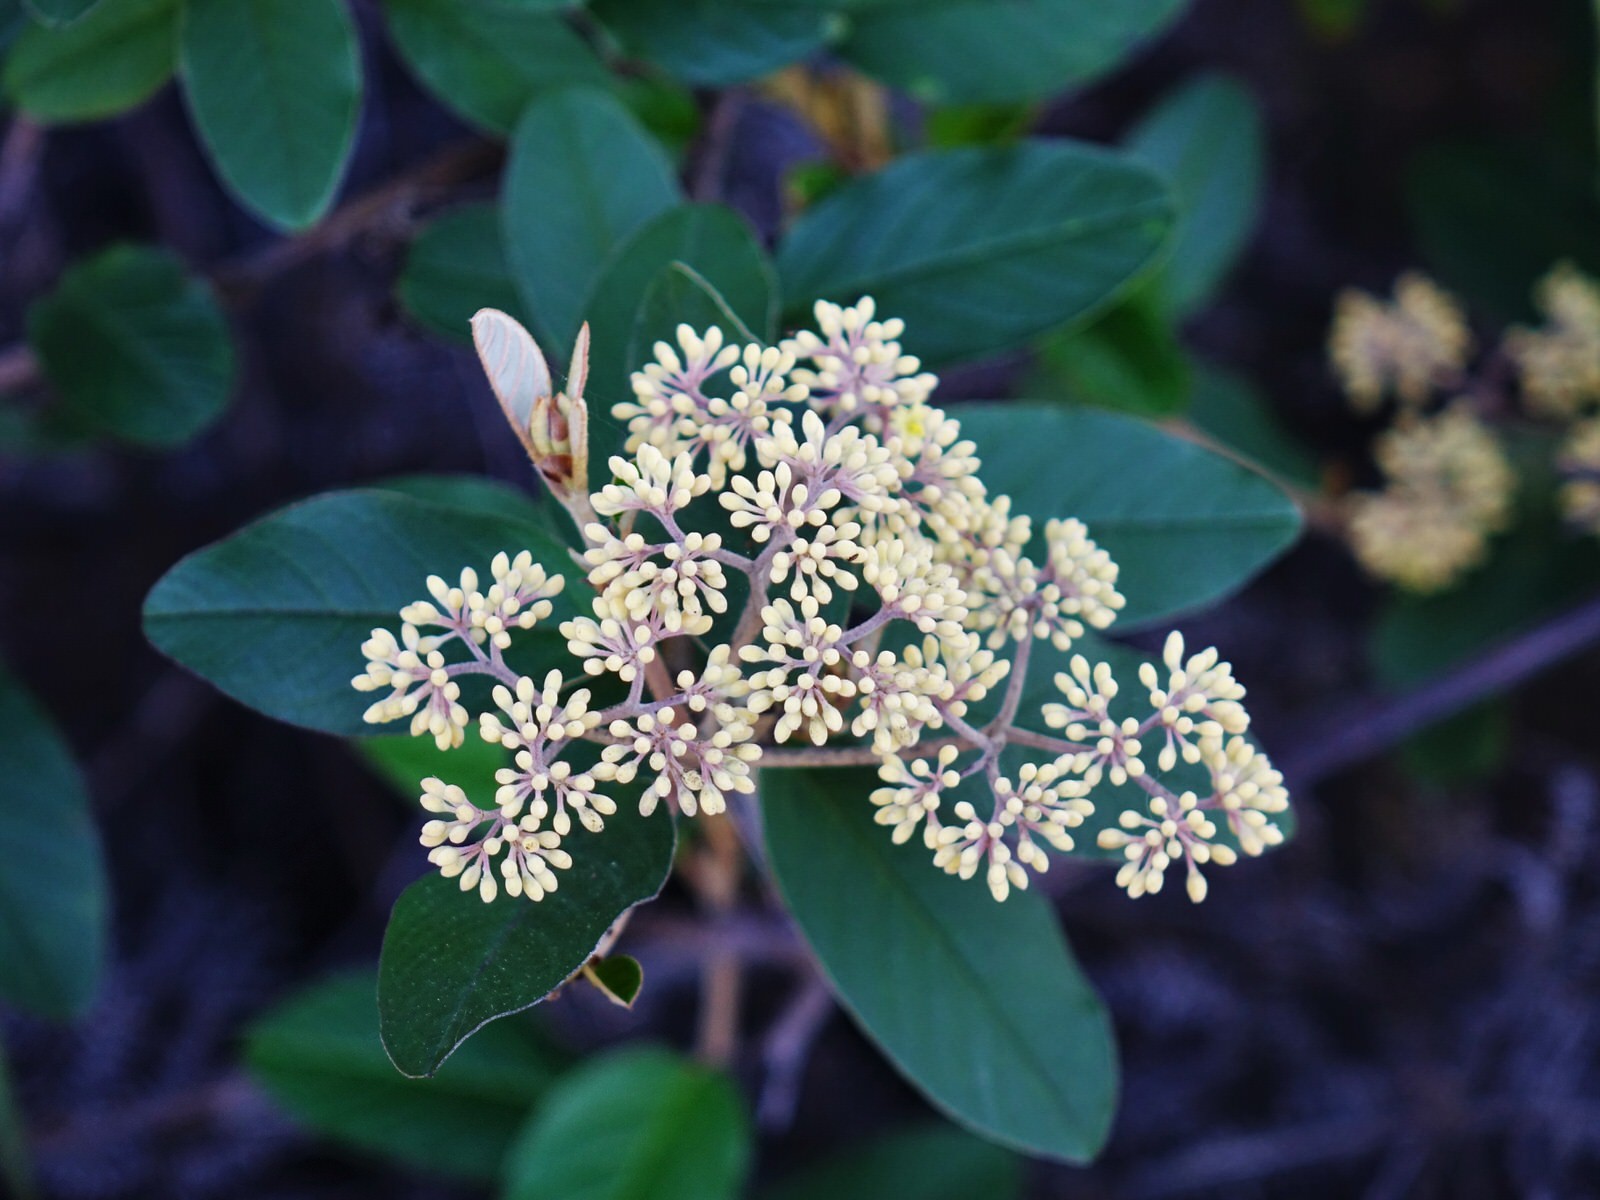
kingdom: Plantae
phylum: Tracheophyta
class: Magnoliopsida
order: Rosales
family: Rhamnaceae
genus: Pomaderris
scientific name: Pomaderris kumeraho
